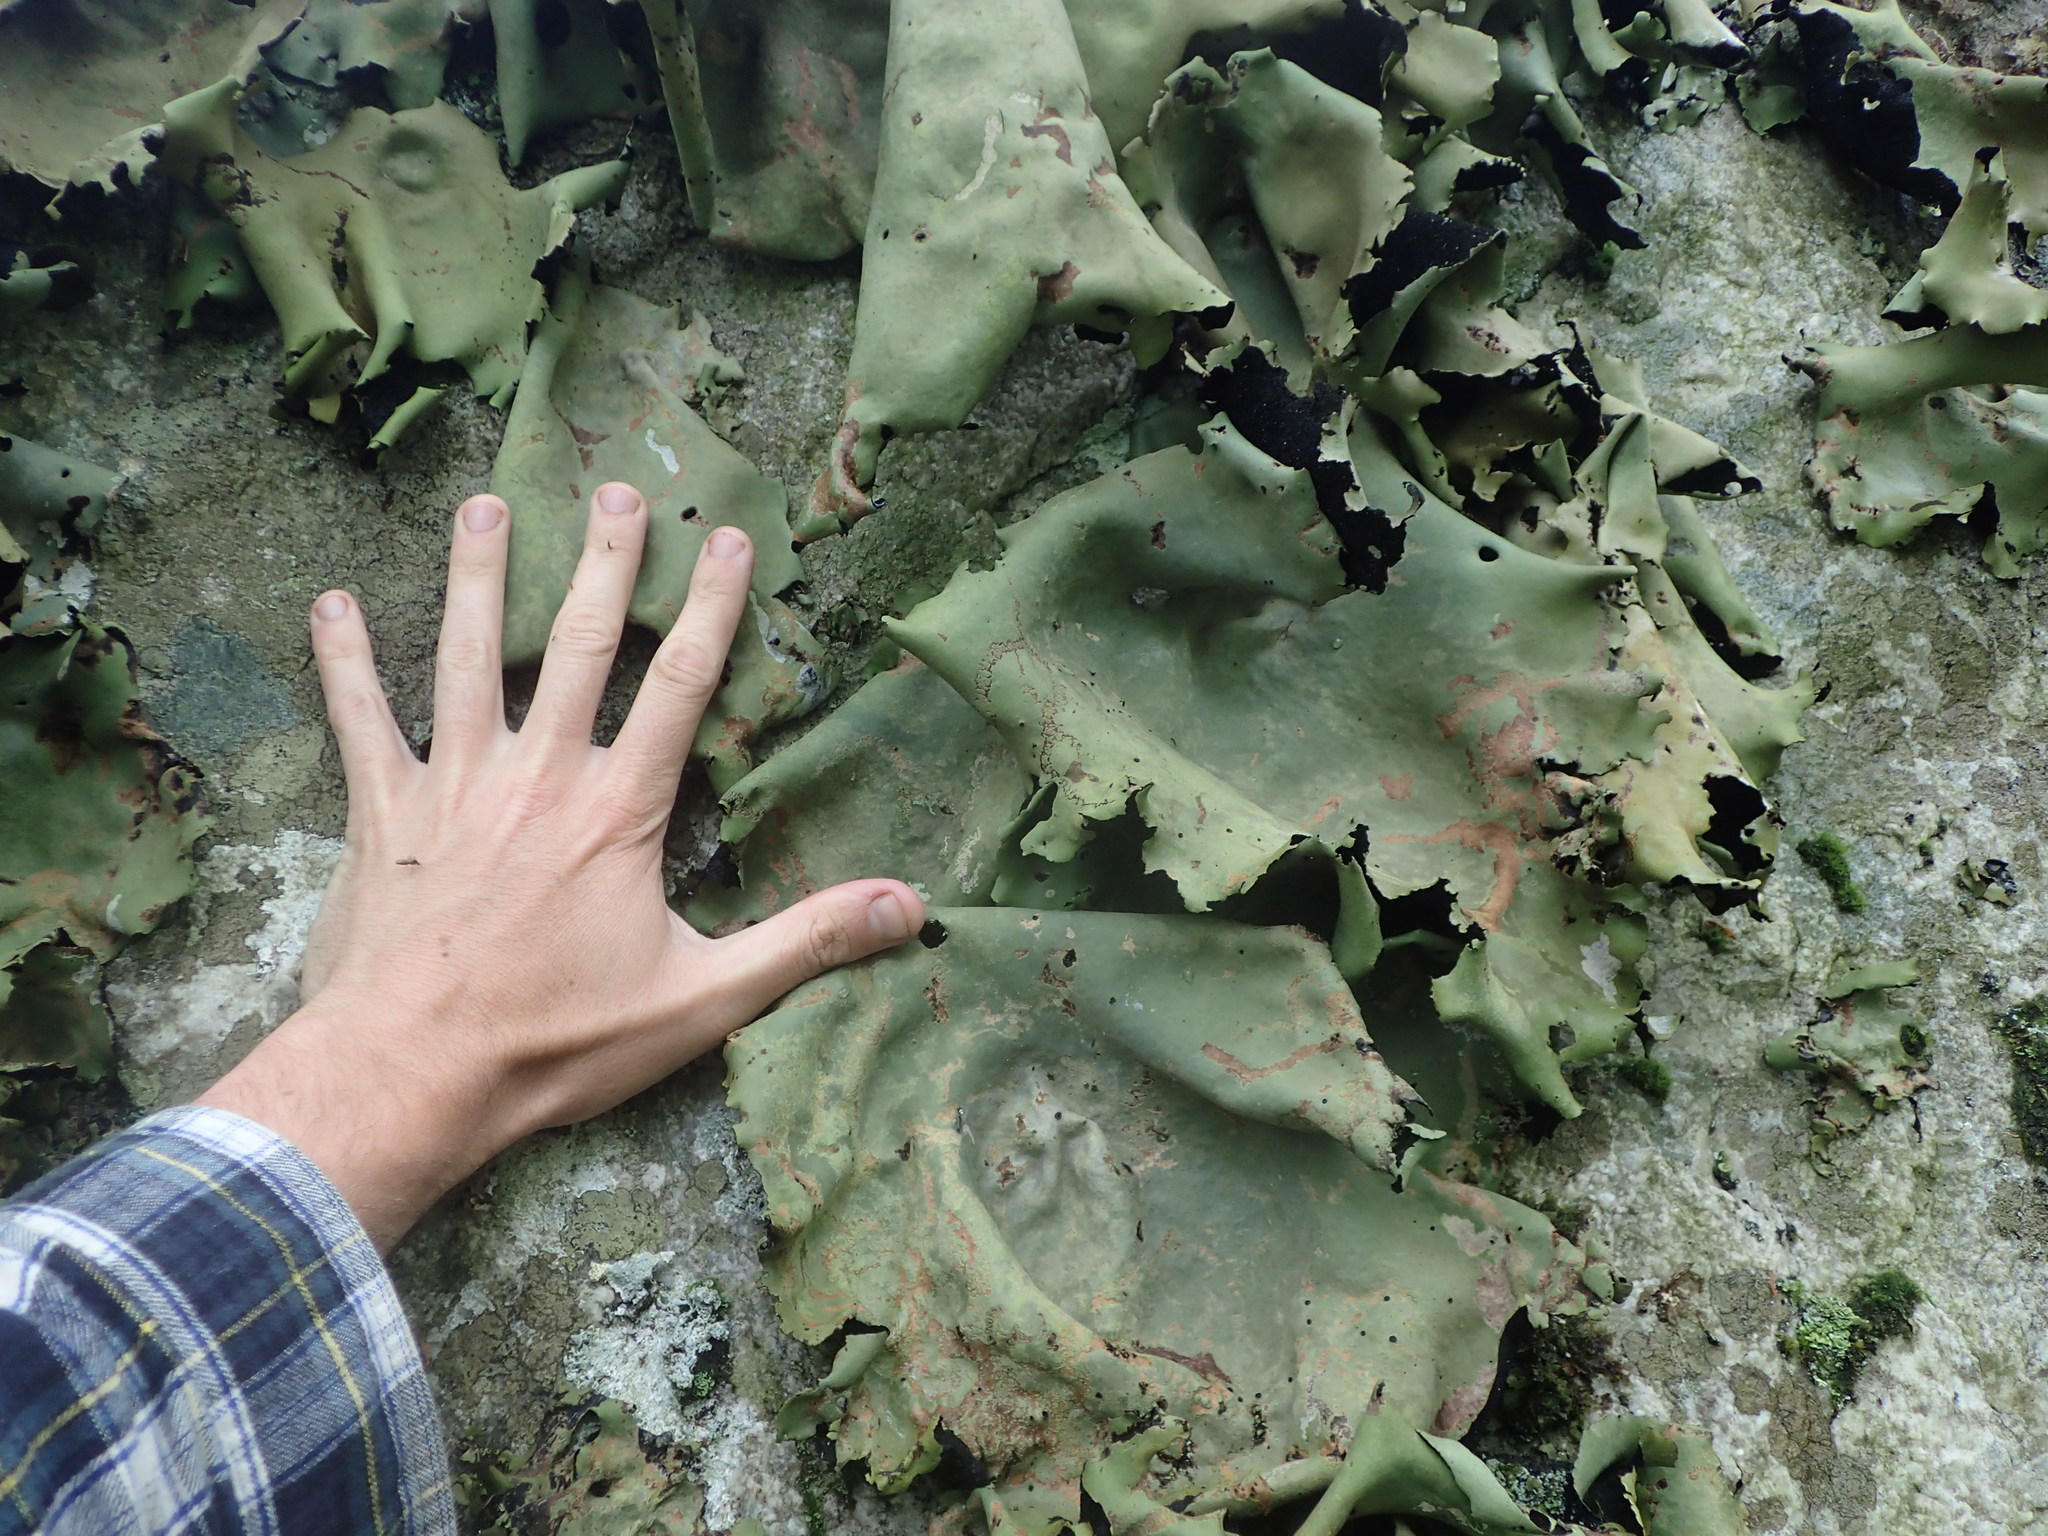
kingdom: Fungi
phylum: Ascomycota
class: Lecanoromycetes
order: Umbilicariales
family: Umbilicariaceae
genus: Umbilicaria
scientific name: Umbilicaria mammulata
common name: Smooth rock tripe
